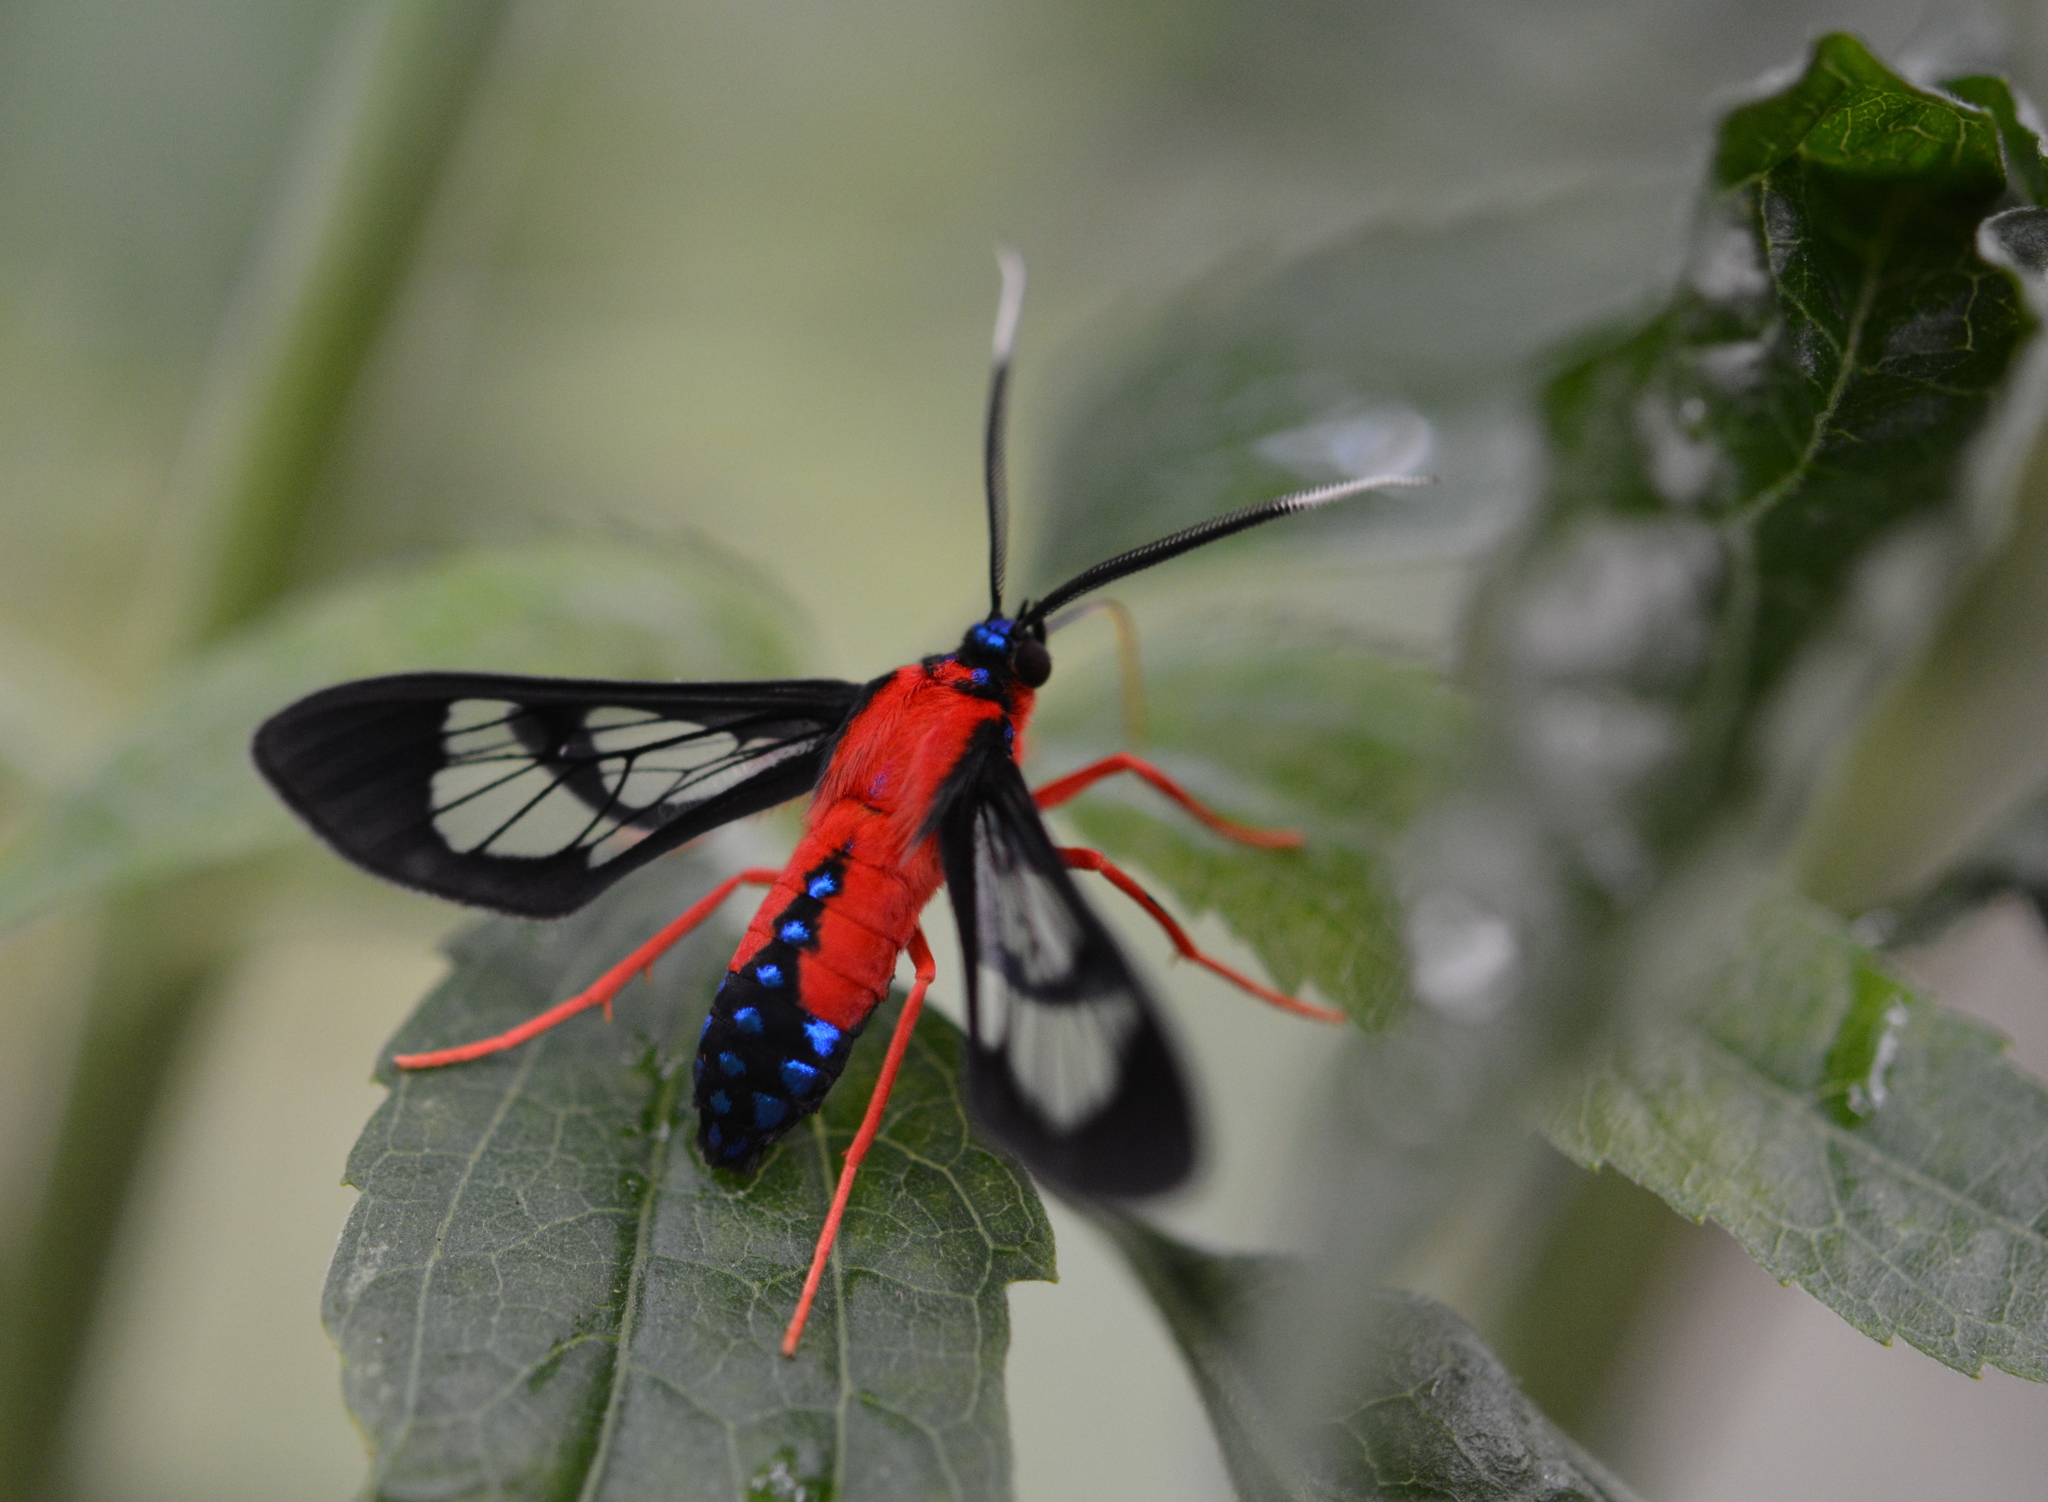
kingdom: Animalia
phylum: Arthropoda
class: Insecta
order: Lepidoptera
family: Erebidae
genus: Cosmosoma
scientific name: Cosmosoma myrodora
